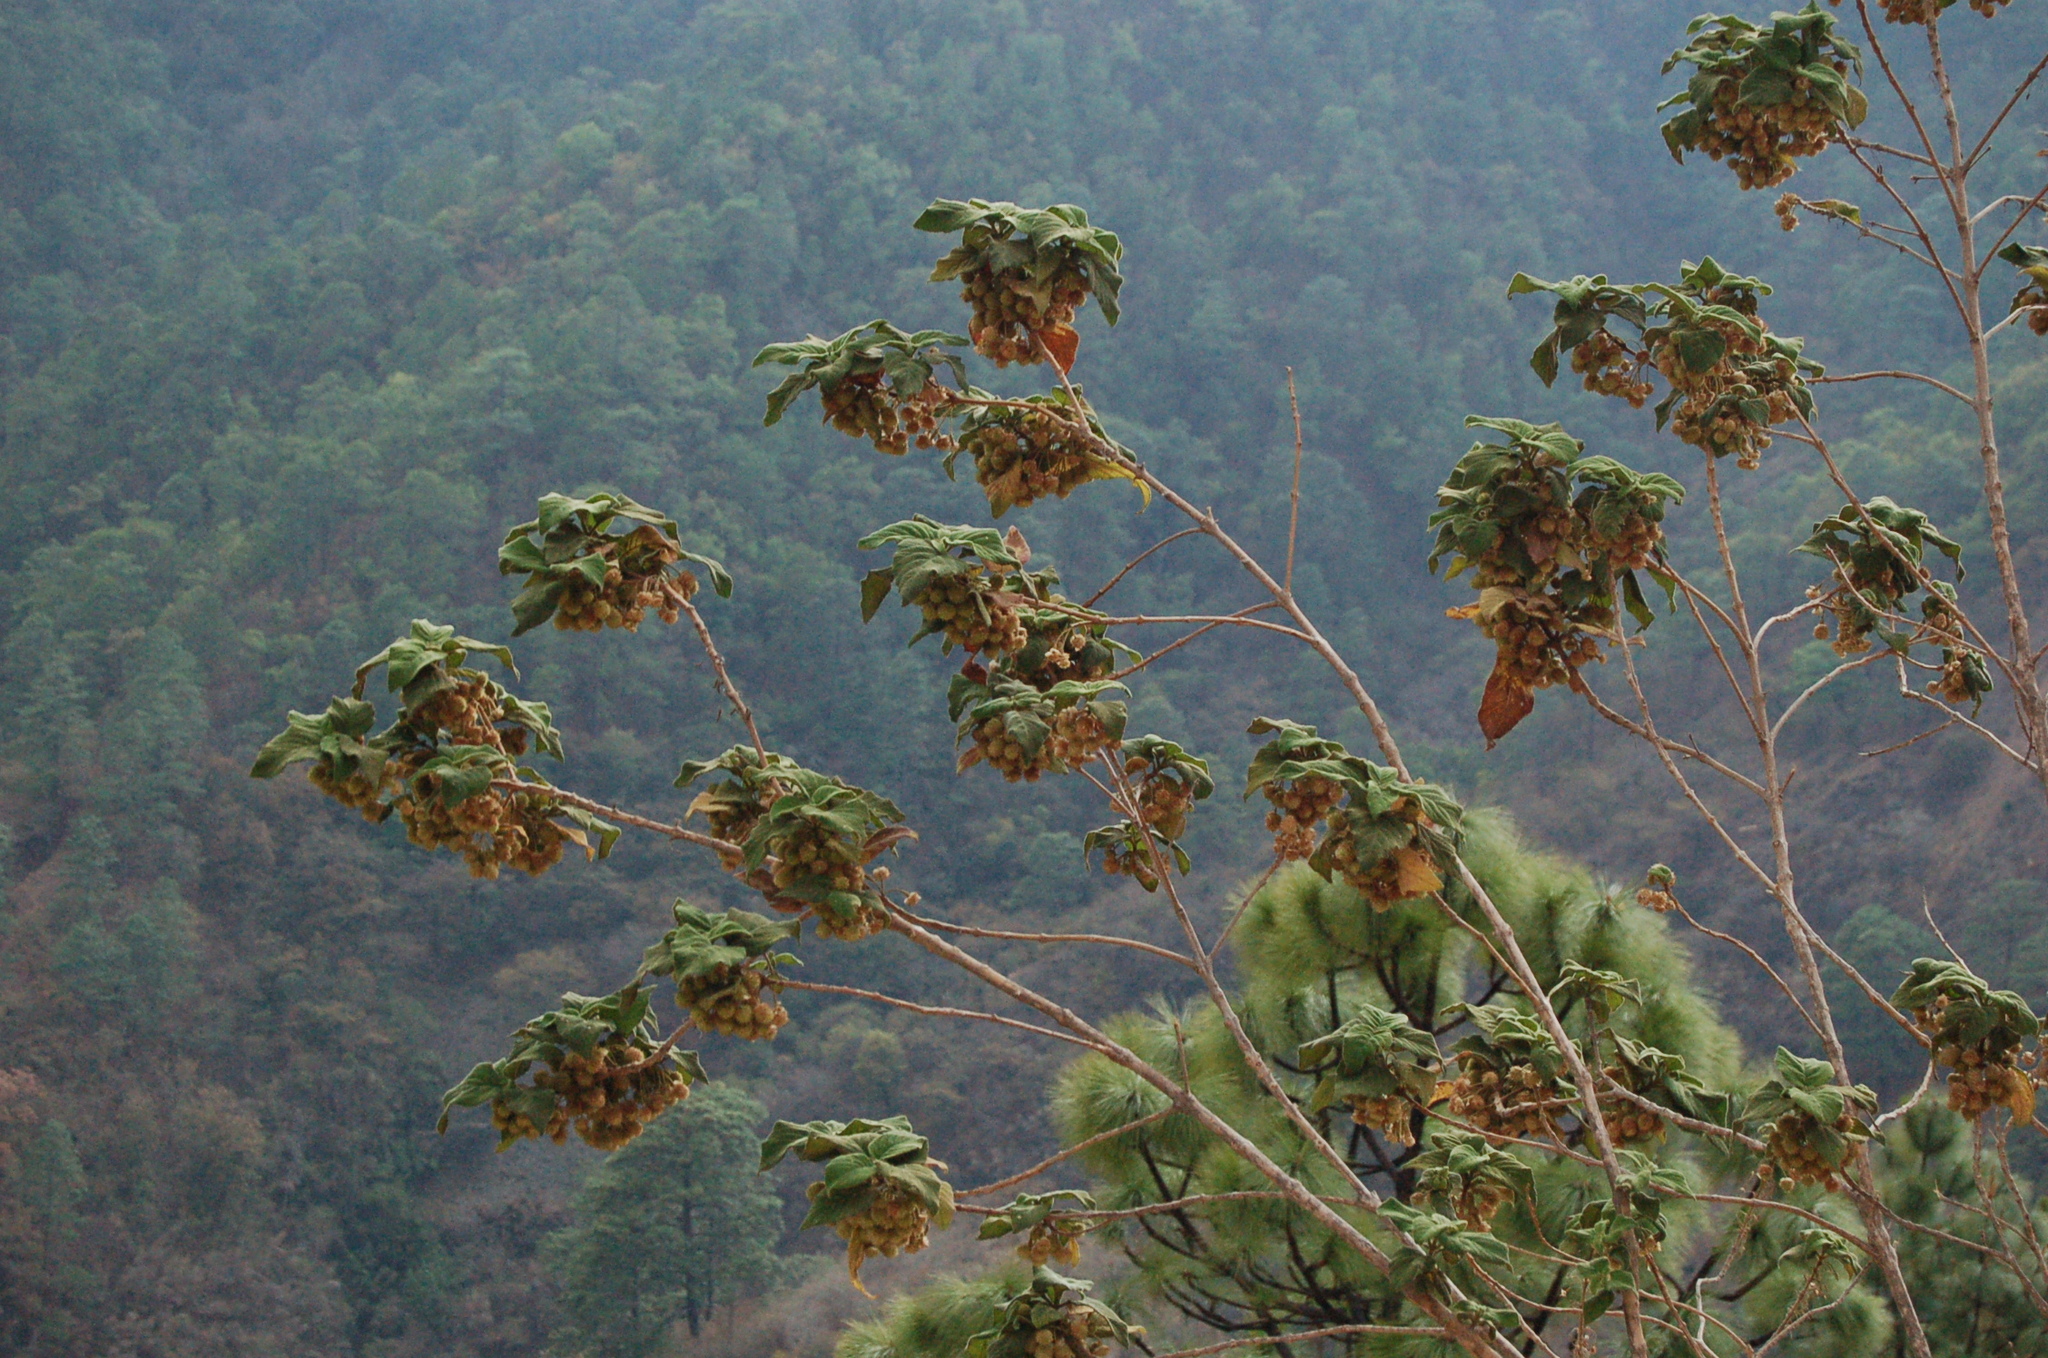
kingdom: Plantae
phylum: Tracheophyta
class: Magnoliopsida
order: Lamiales
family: Verbenaceae
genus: Lippia
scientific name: Lippia umbellata
